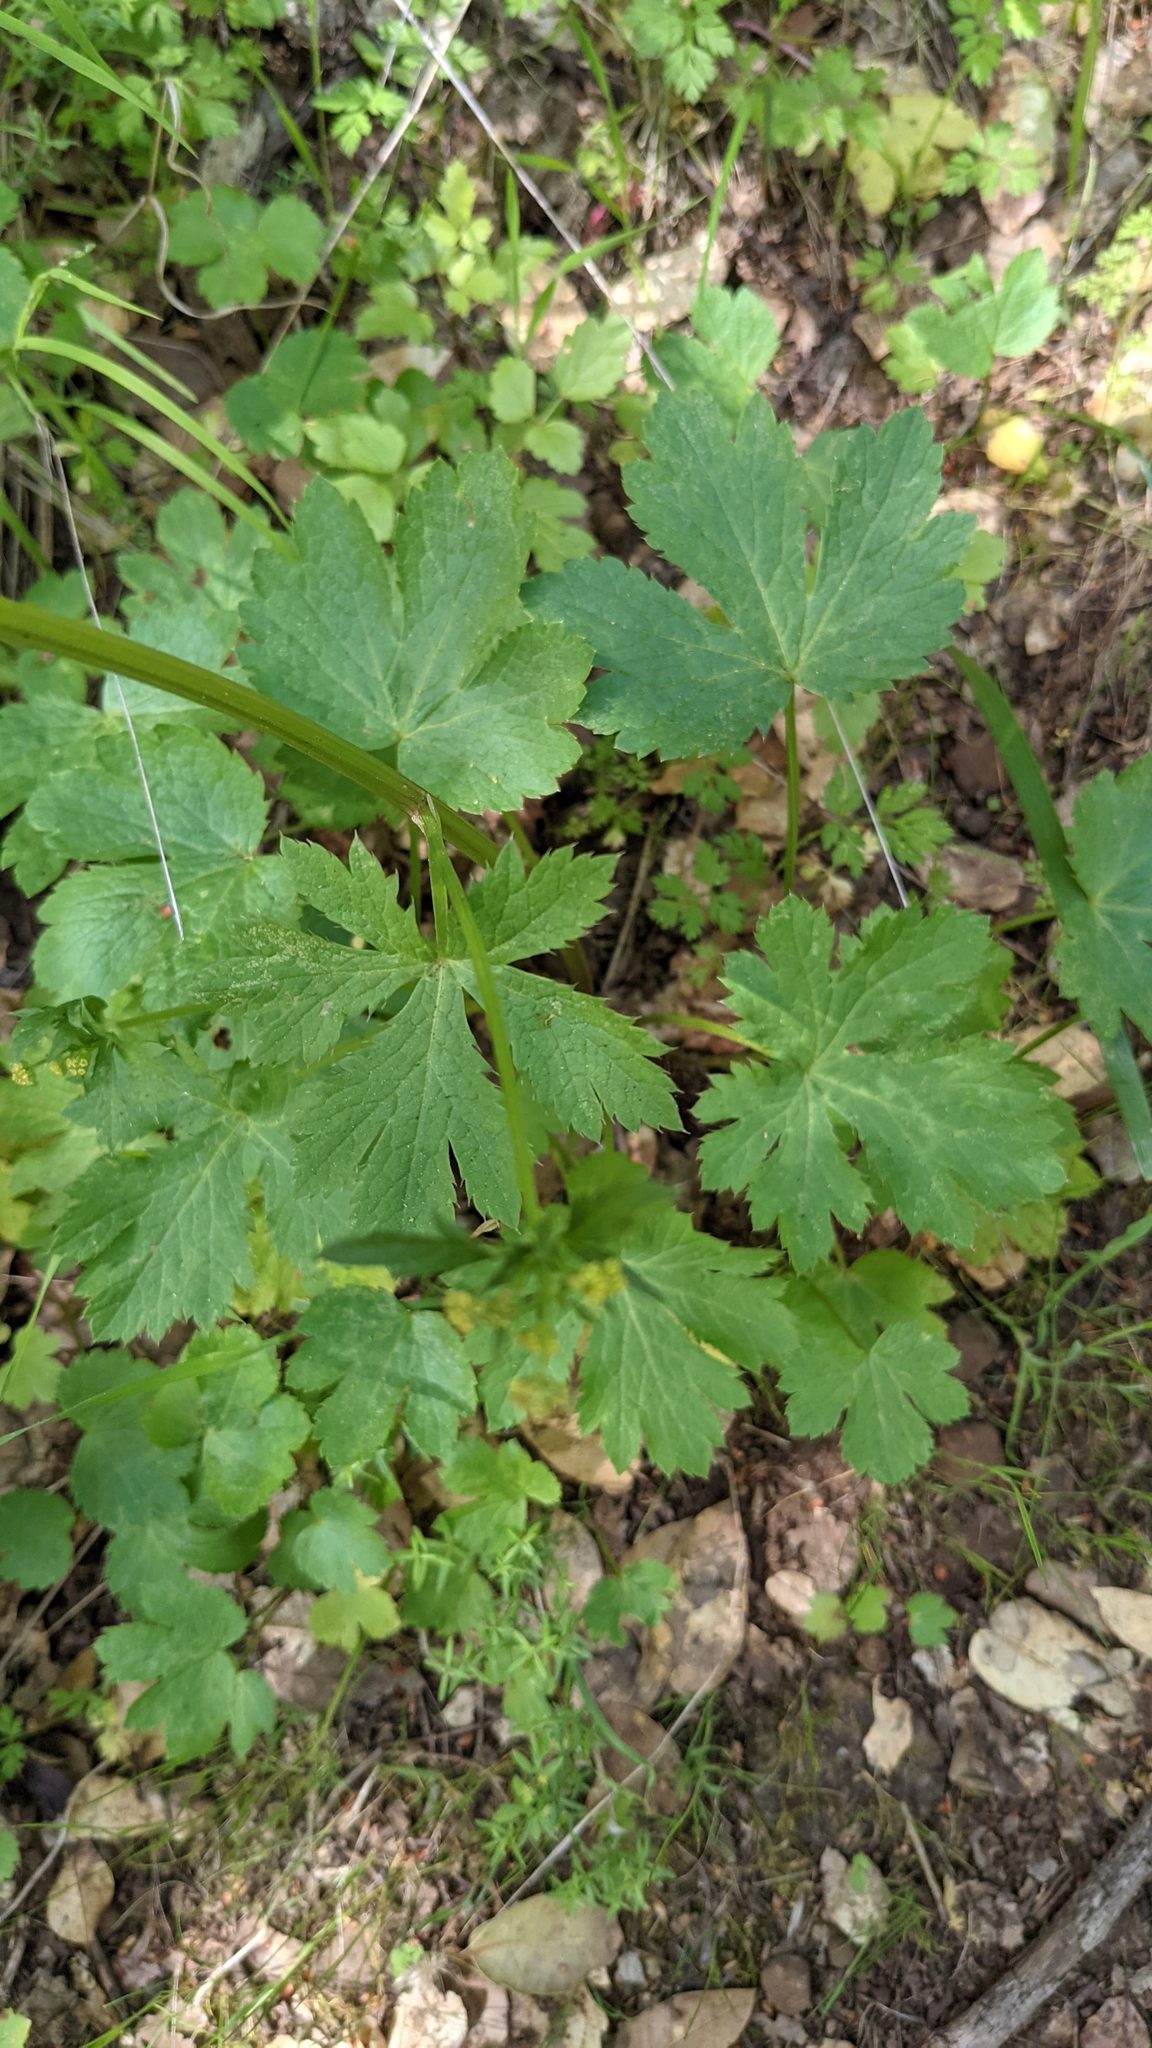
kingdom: Plantae
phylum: Tracheophyta
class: Magnoliopsida
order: Apiales
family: Apiaceae
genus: Sanicula
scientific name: Sanicula crassicaulis
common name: Western snakeroot
